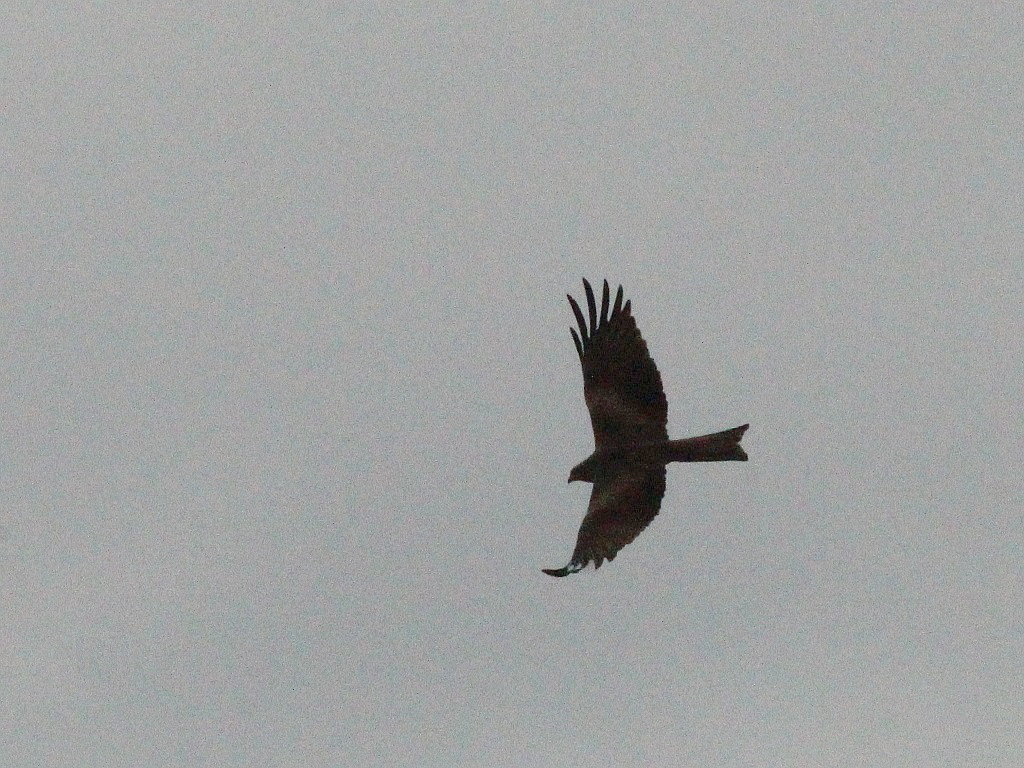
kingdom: Animalia
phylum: Chordata
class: Aves
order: Accipitriformes
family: Accipitridae
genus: Milvus
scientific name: Milvus migrans
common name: Black kite
